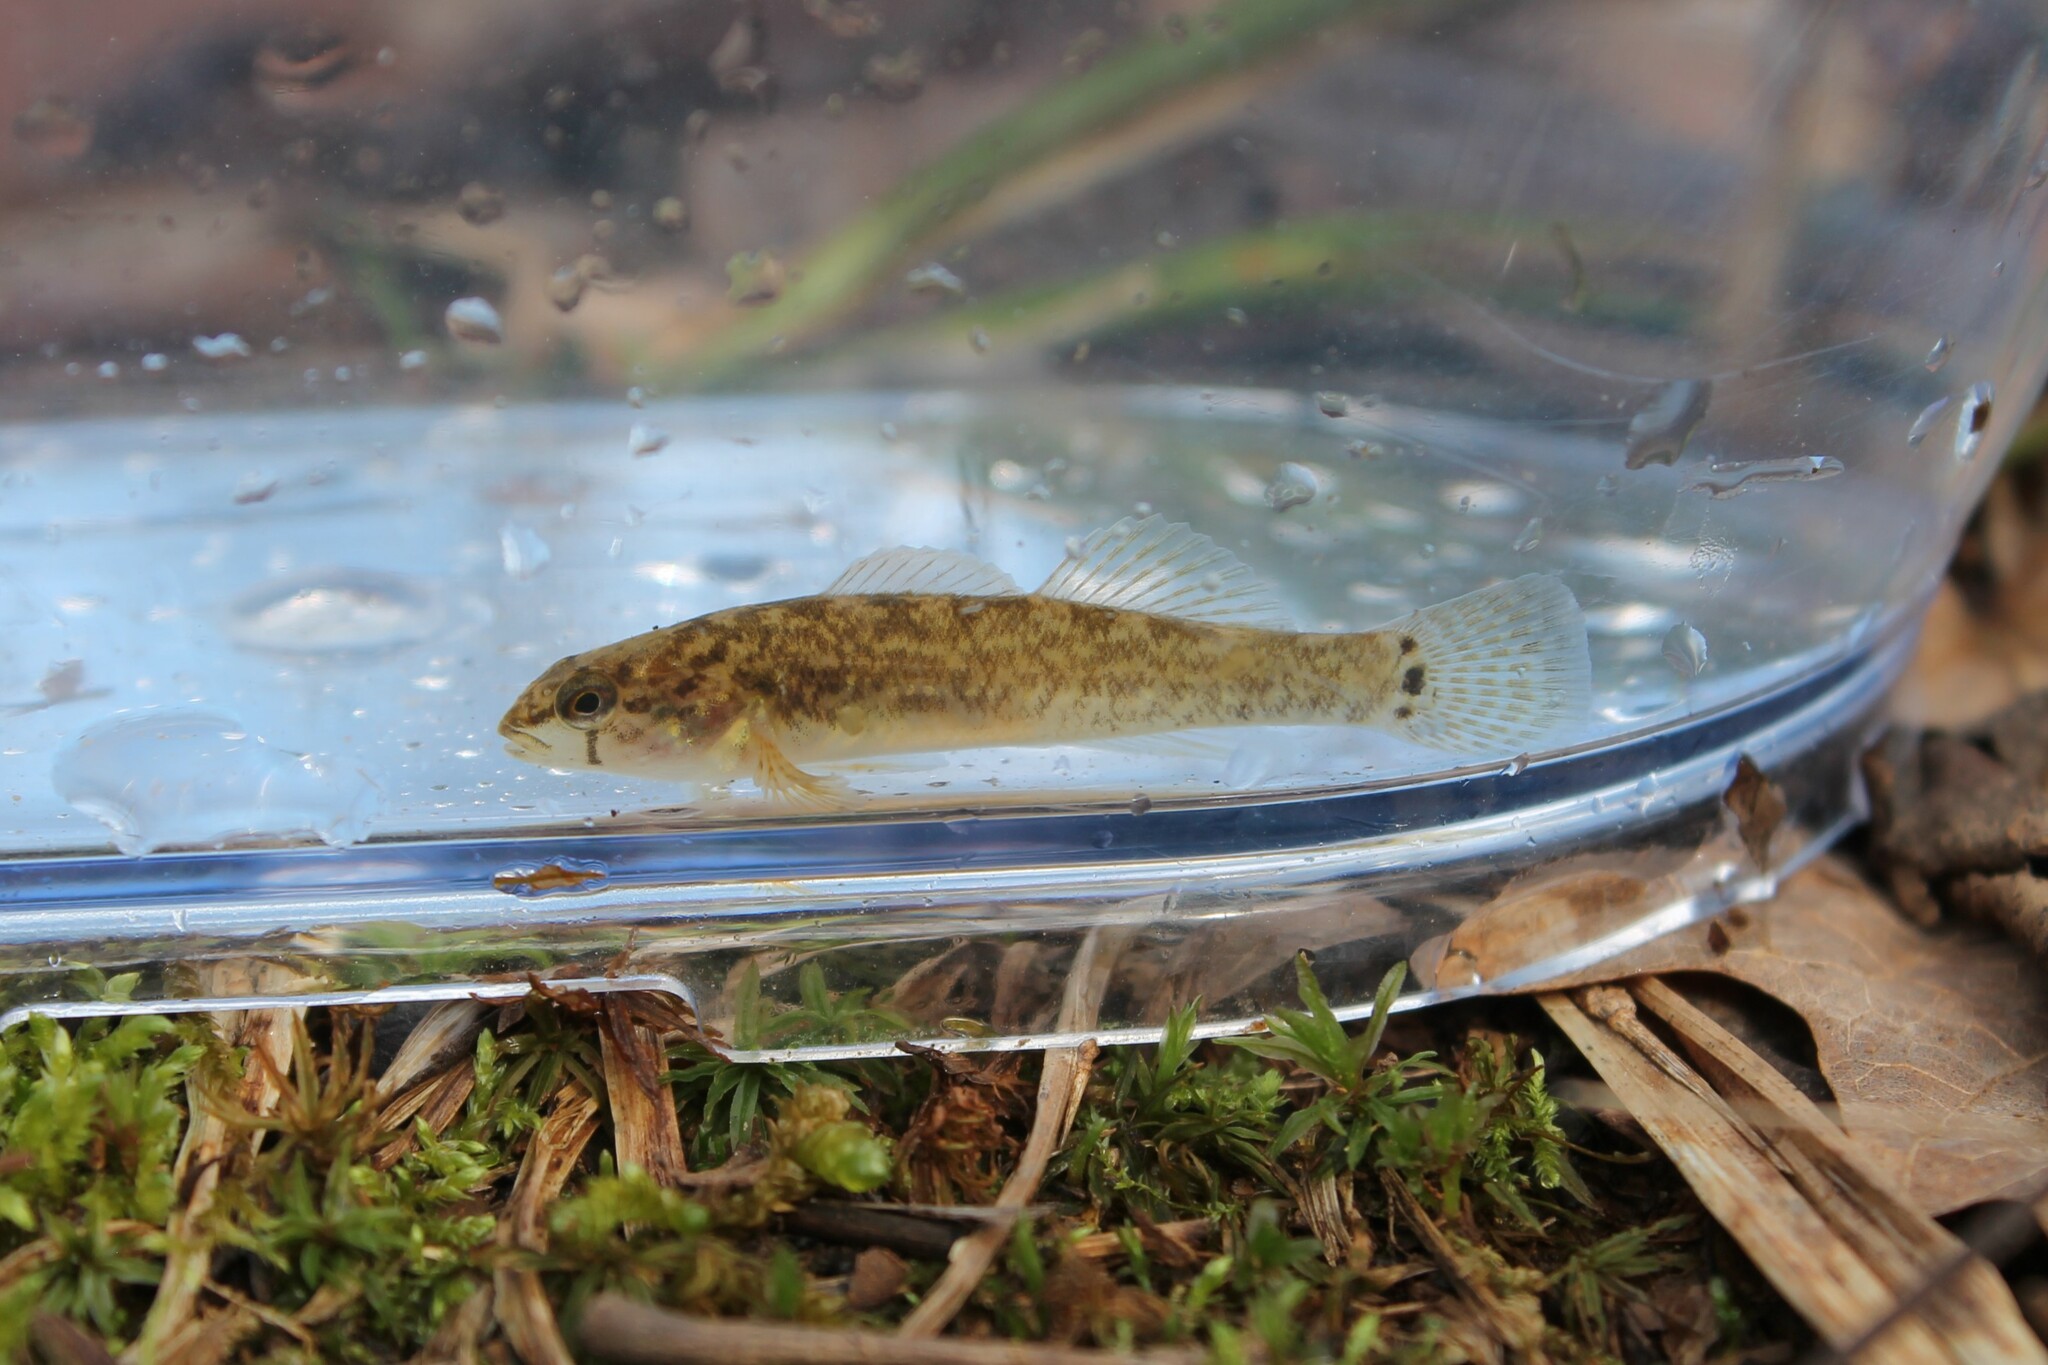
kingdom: Animalia
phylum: Chordata
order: Perciformes
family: Percidae
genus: Etheostoma
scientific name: Etheostoma crossopterum
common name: Fringed darter
